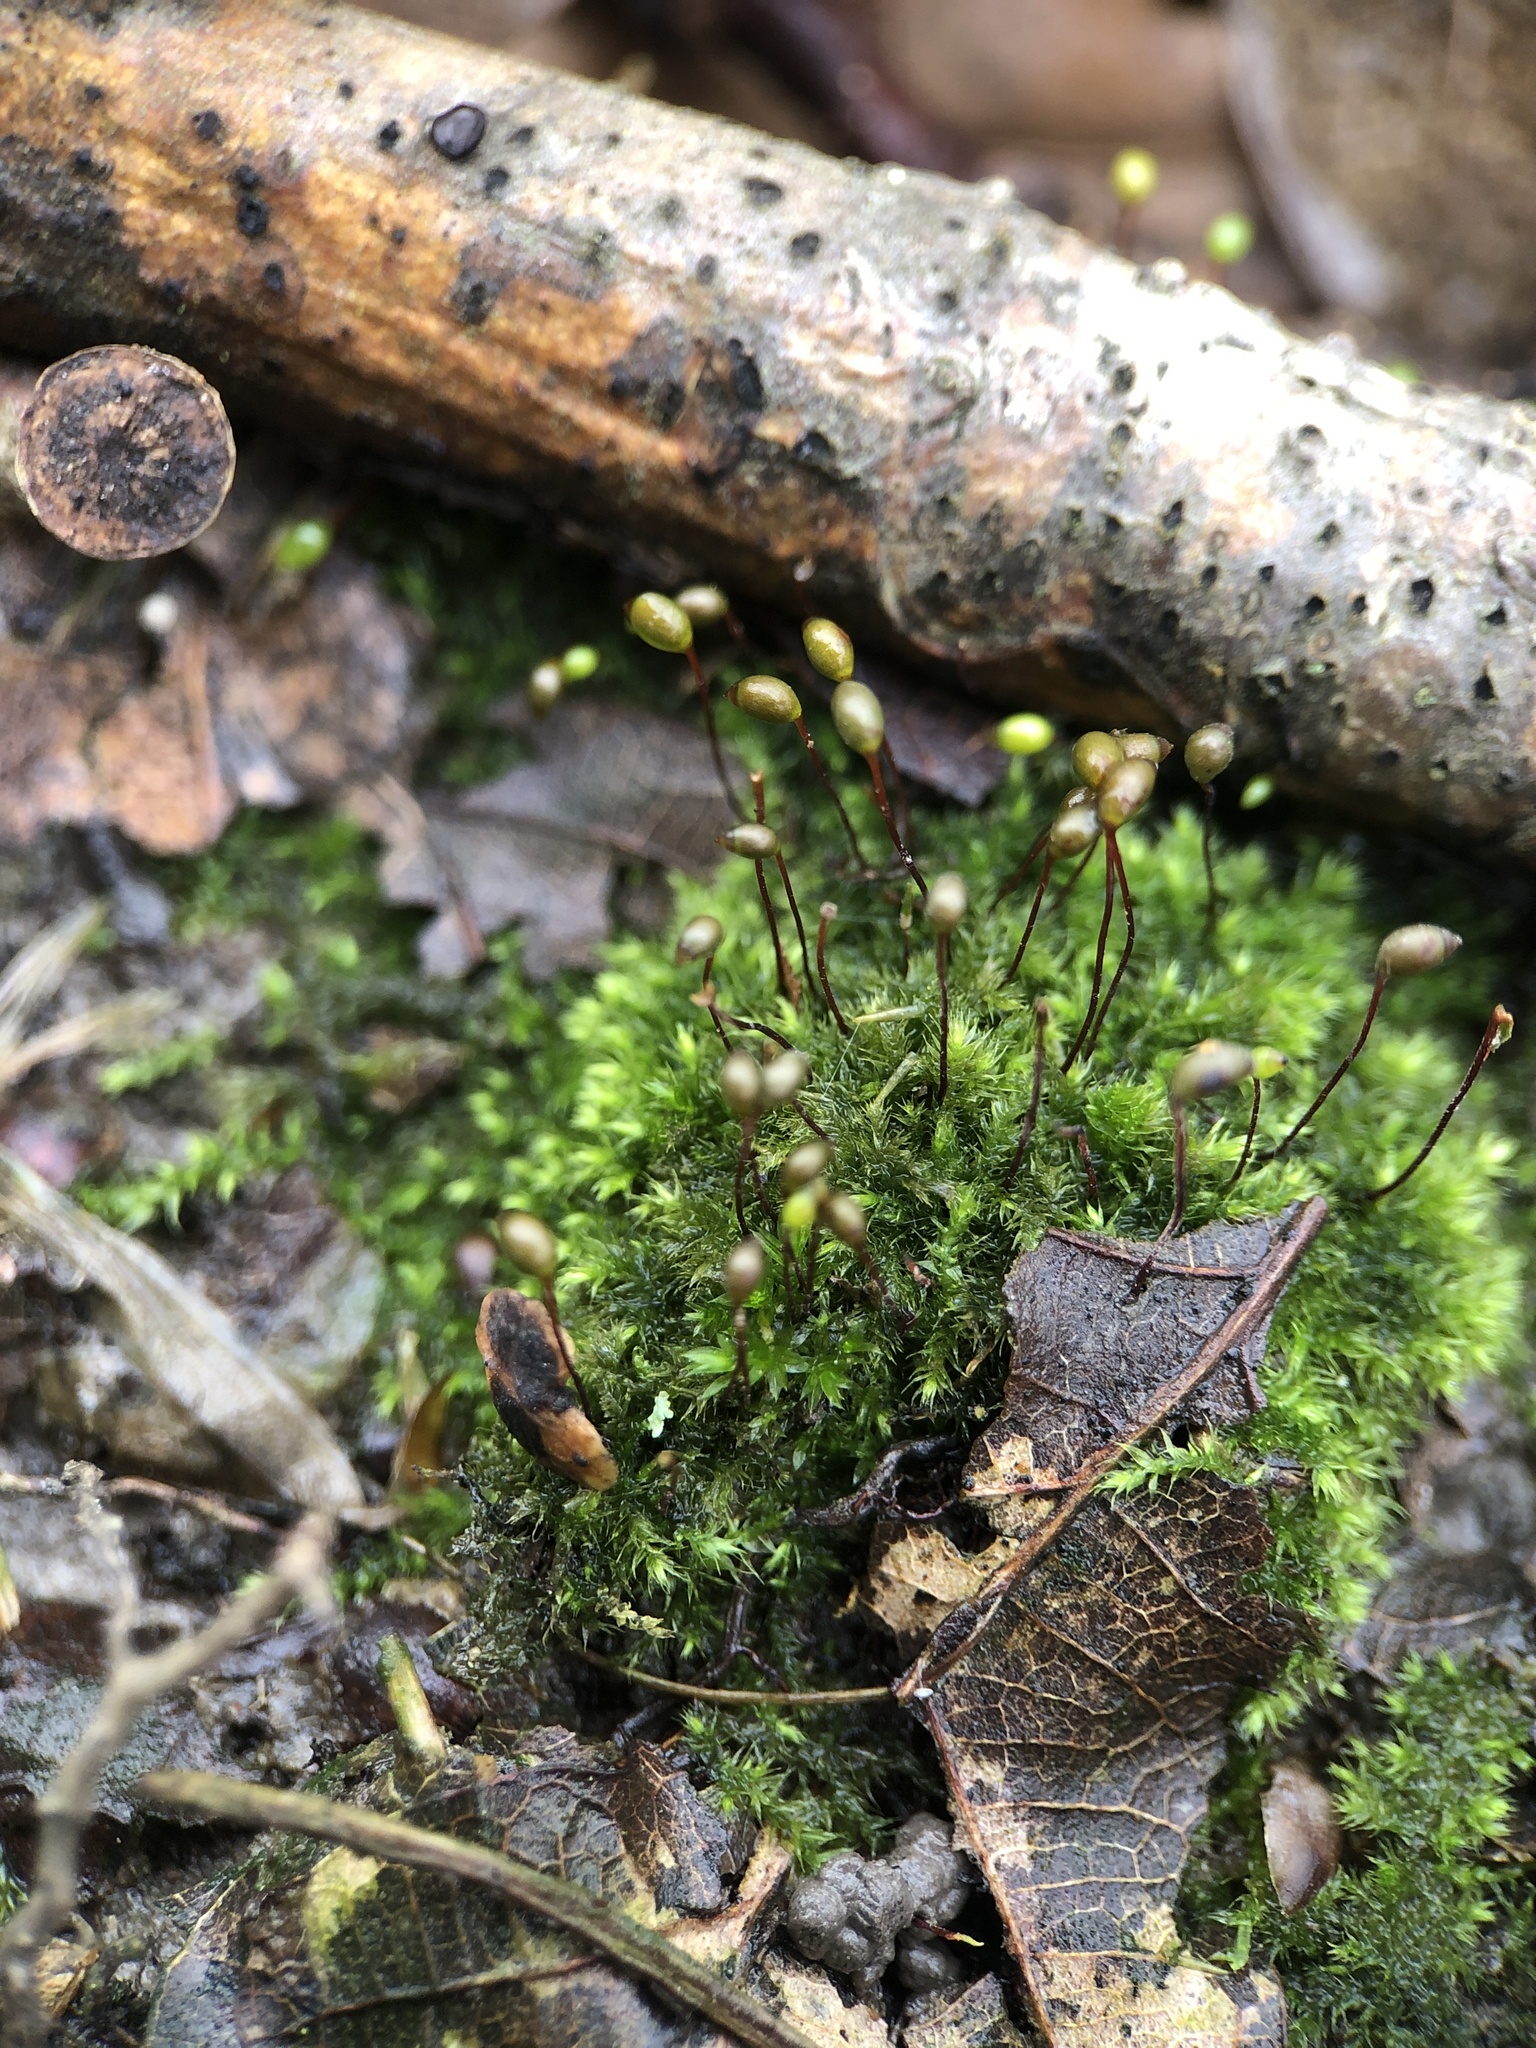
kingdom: Plantae
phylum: Bryophyta
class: Bryopsida
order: Hypnales
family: Brachytheciaceae
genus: Brachytheciastrum
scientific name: Brachytheciastrum velutinum
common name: Velvet feather-moss
